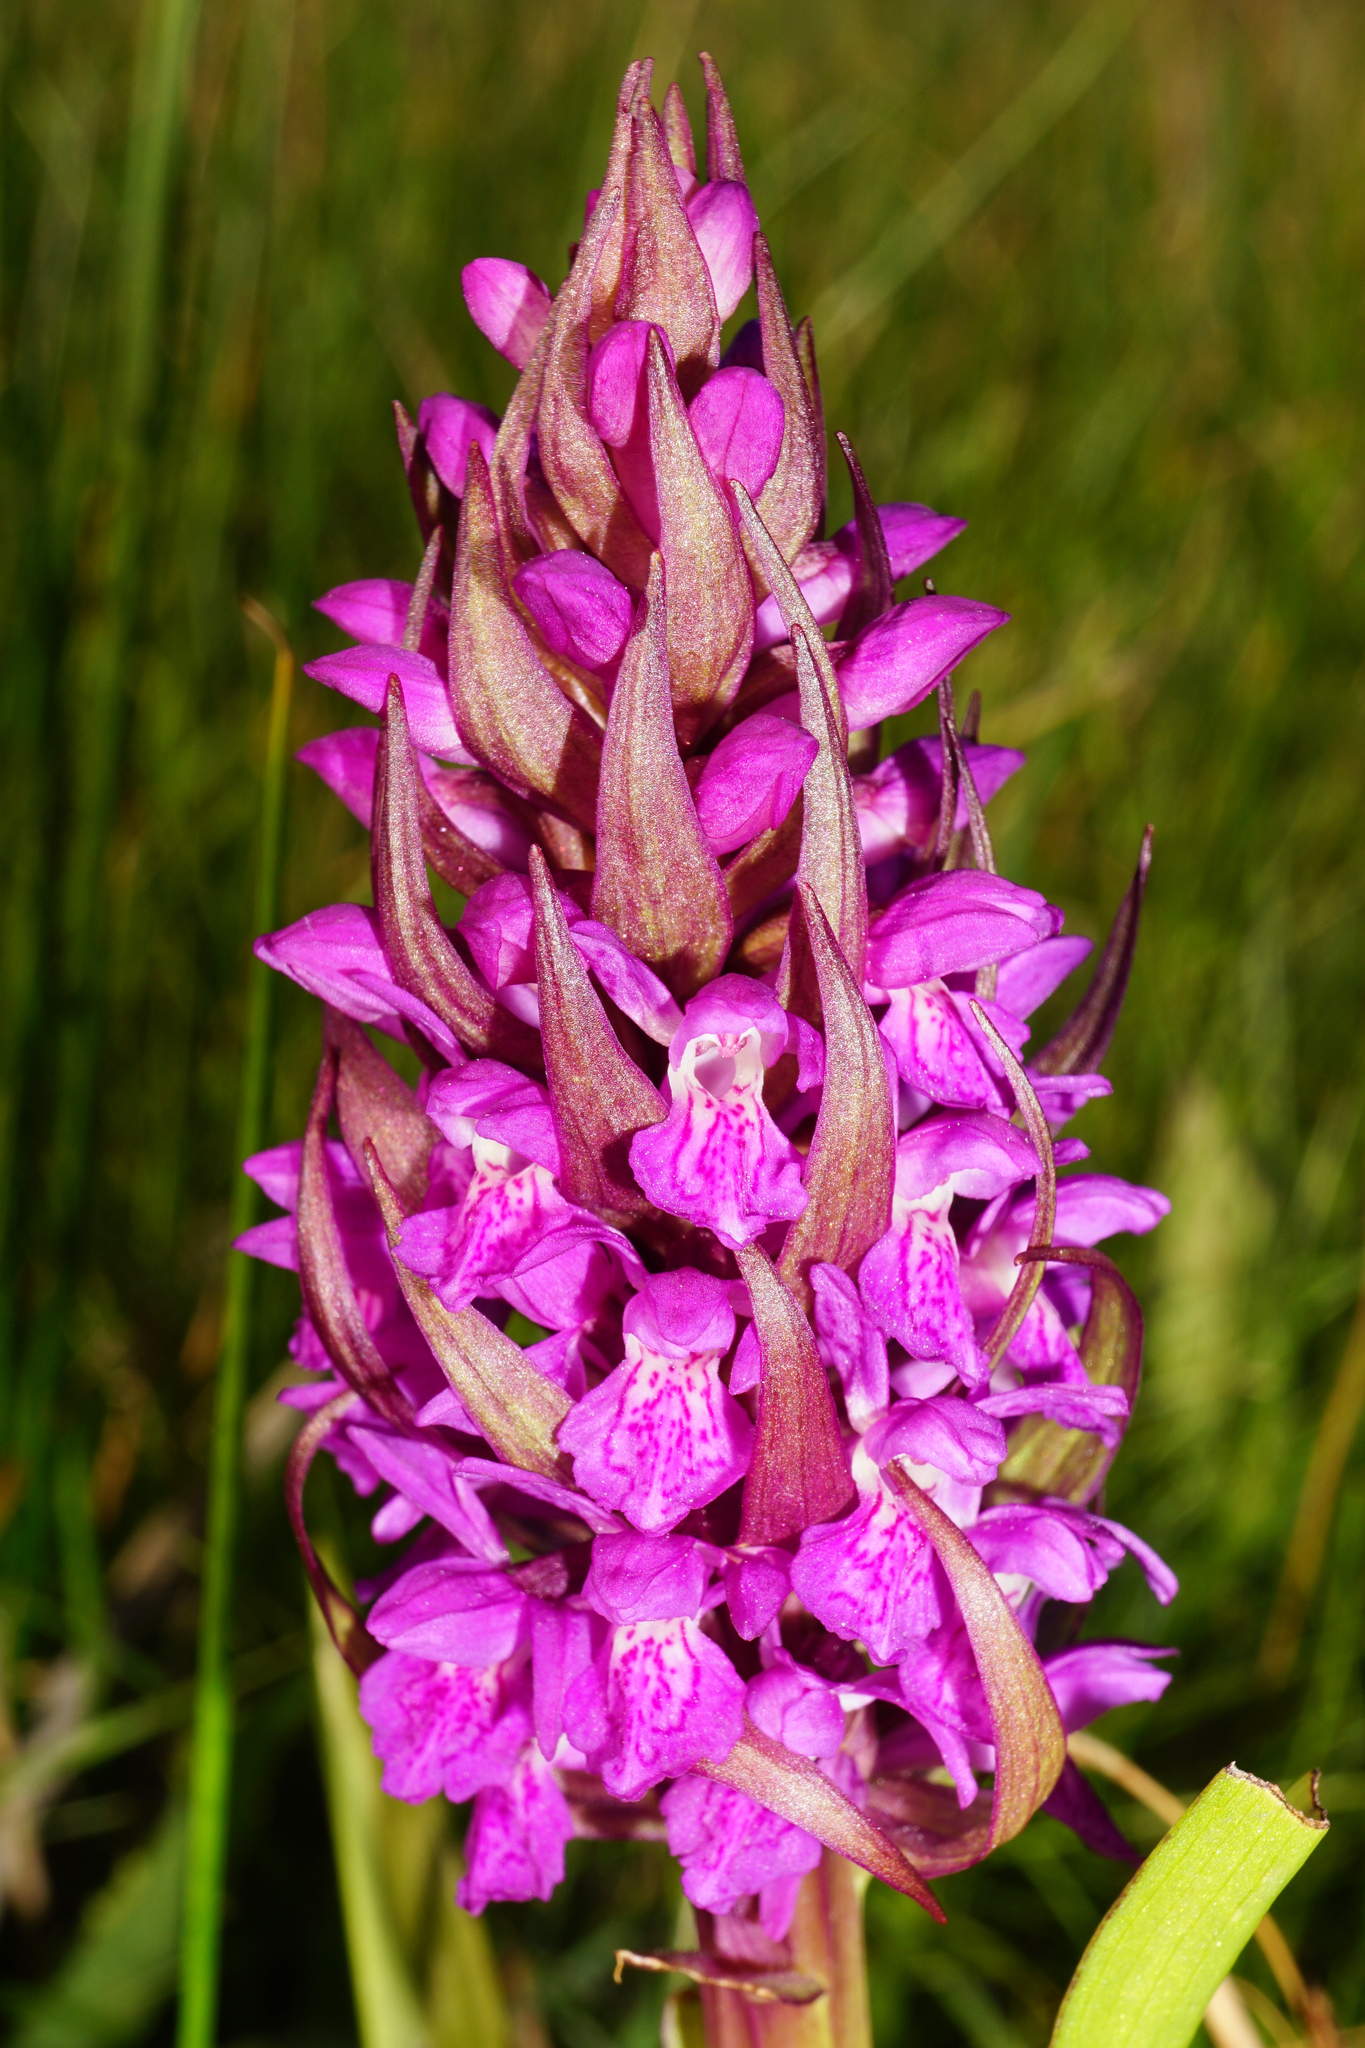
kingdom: Plantae
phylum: Tracheophyta
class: Liliopsida
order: Asparagales
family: Orchidaceae
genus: Dactylorhiza
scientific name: Dactylorhiza incarnata
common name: Early marsh-orchid
